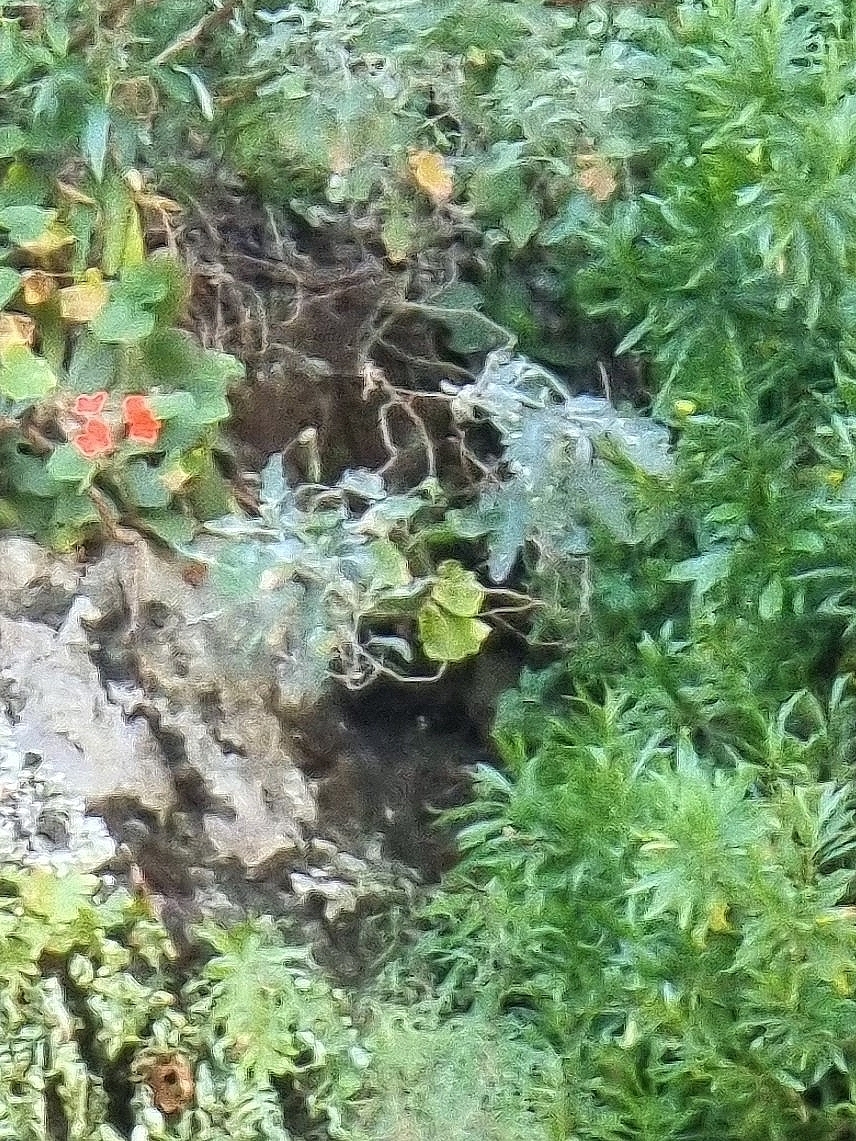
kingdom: Plantae
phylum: Tracheophyta
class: Magnoliopsida
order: Brassicales
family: Brassicaceae
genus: Crambe
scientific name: Crambe fruticosa
